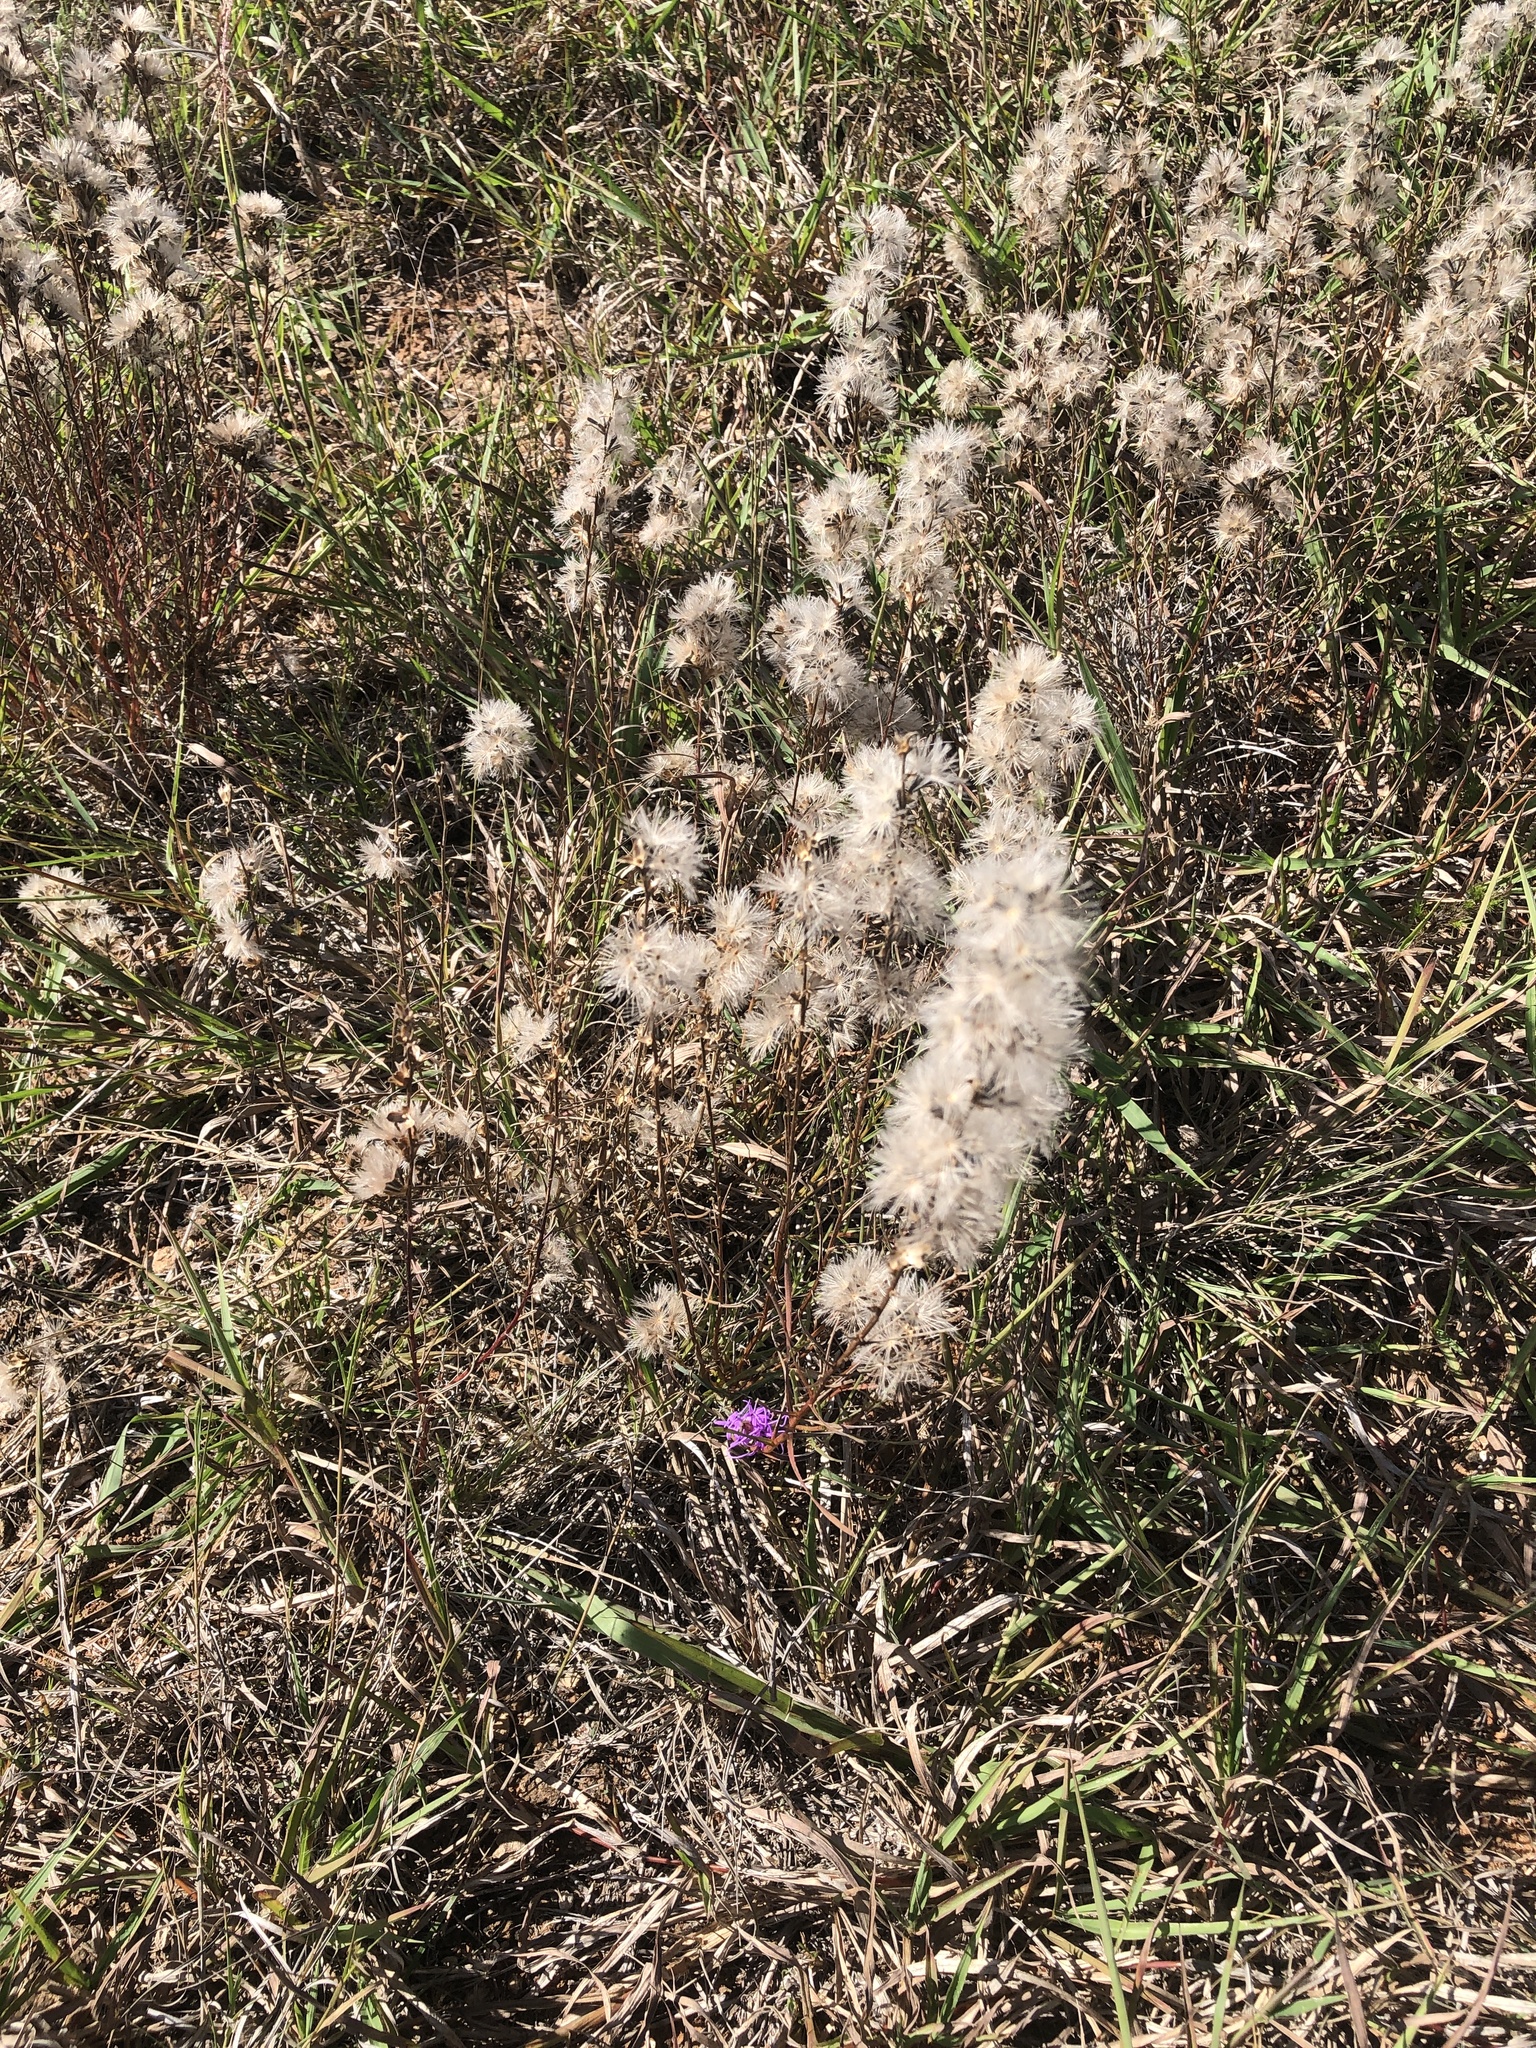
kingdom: Plantae
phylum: Tracheophyta
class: Magnoliopsida
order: Asterales
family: Asteraceae
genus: Liatris
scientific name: Liatris punctata
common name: Dotted gayfeather
